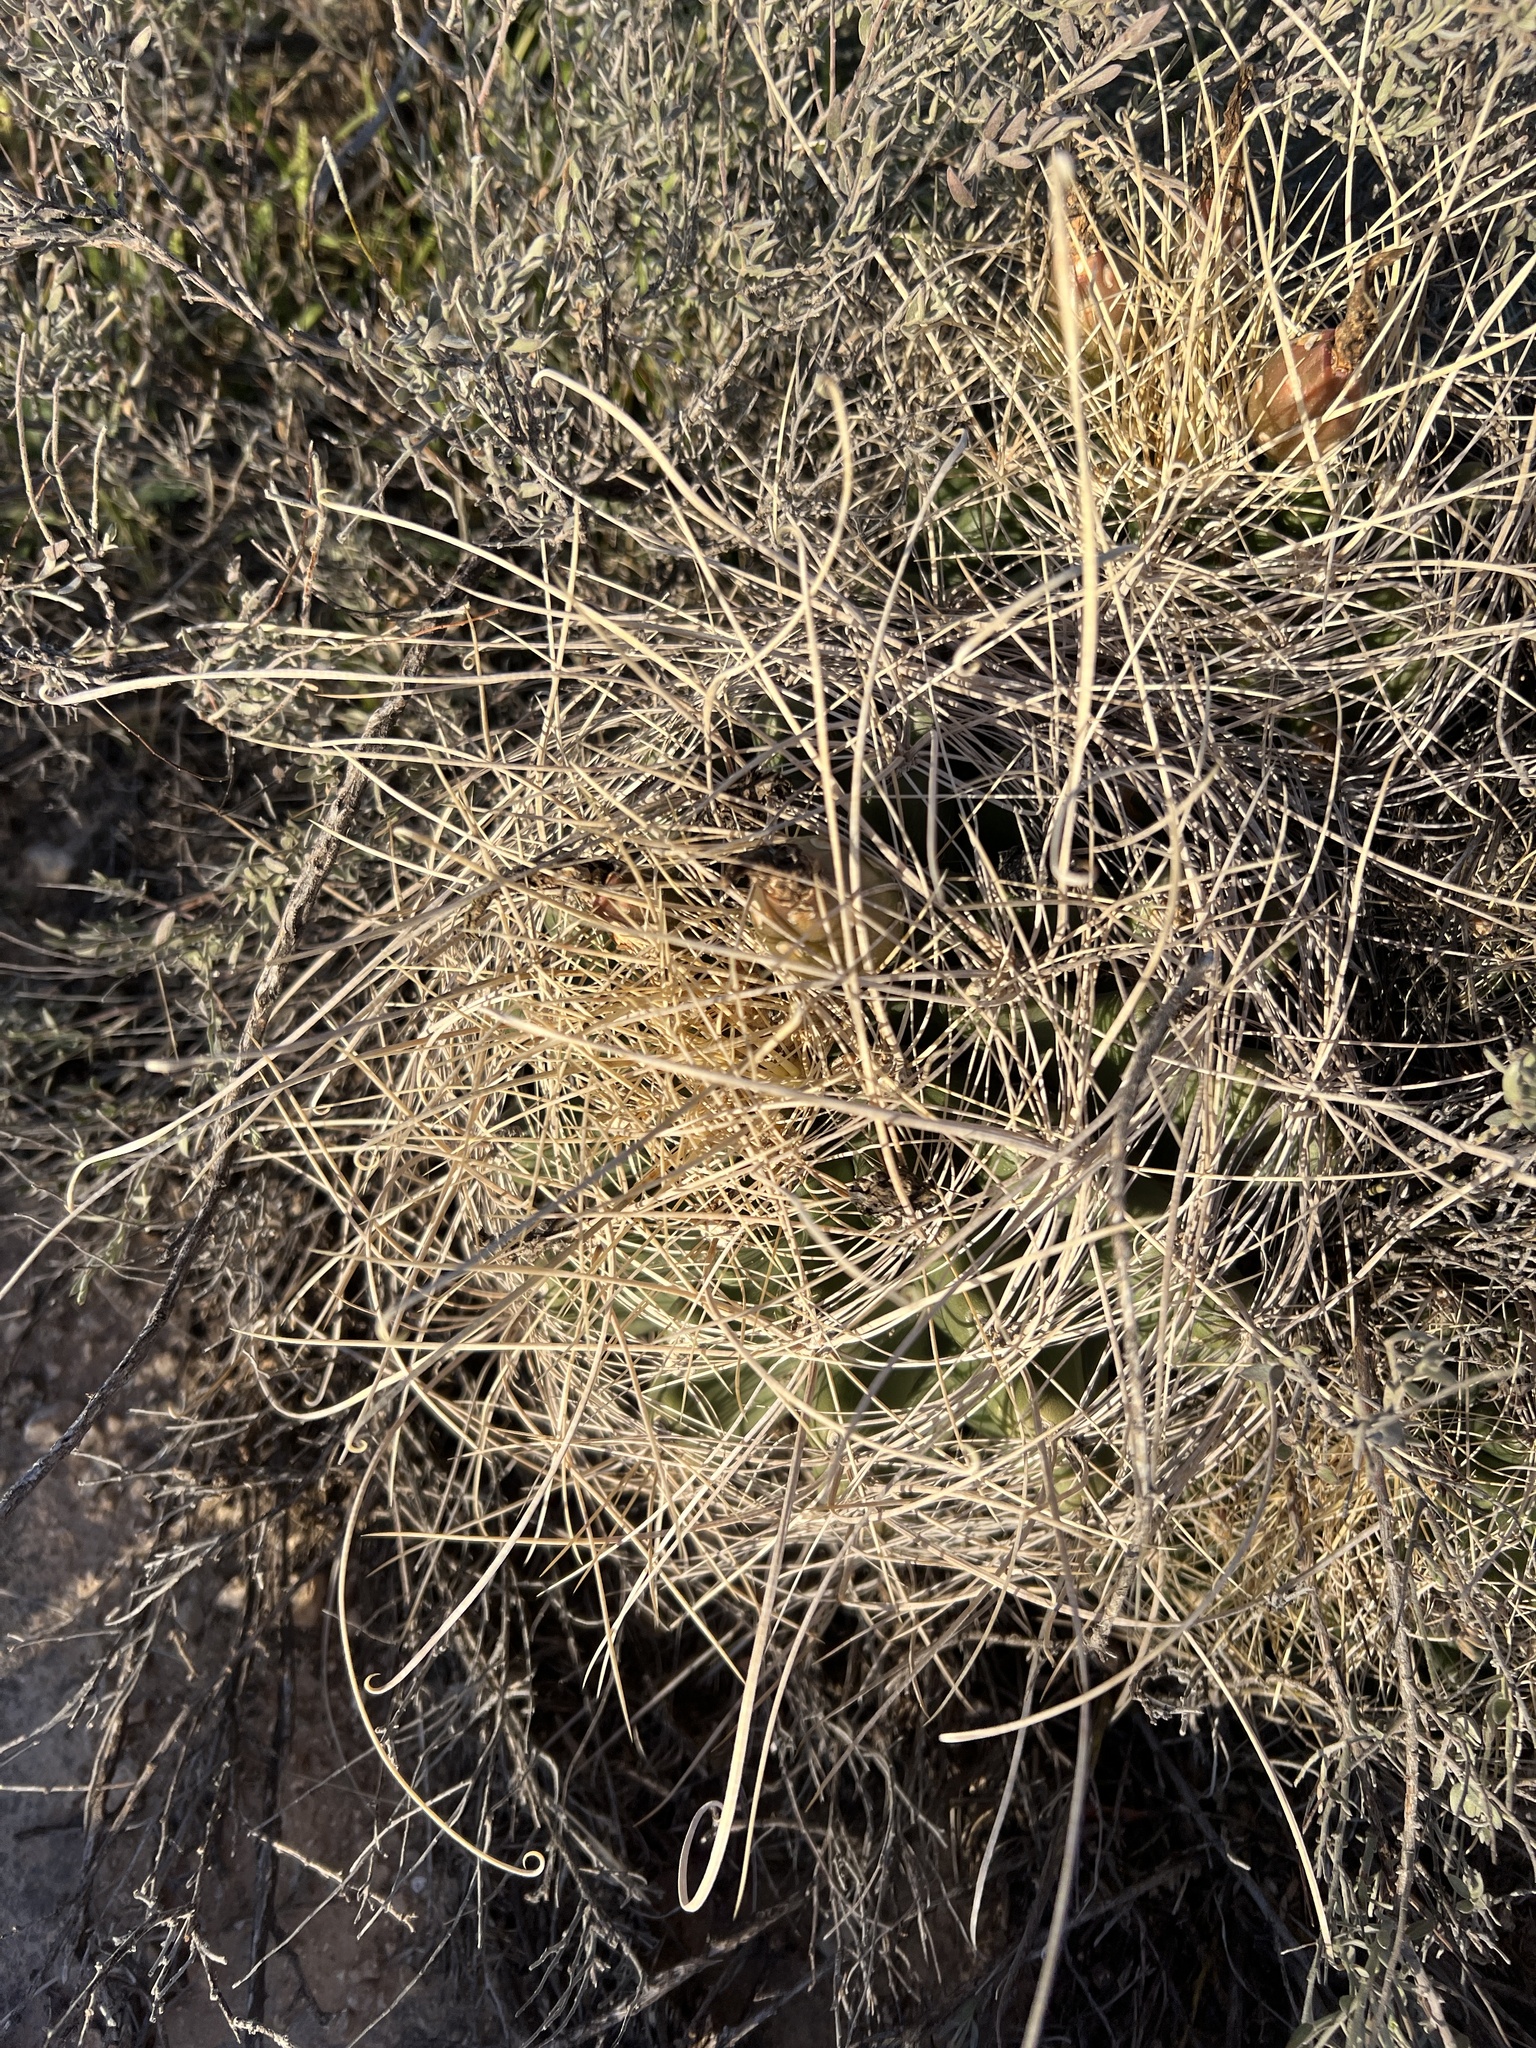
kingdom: Plantae
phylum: Tracheophyta
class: Magnoliopsida
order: Caryophyllales
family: Cactaceae
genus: Bisnaga
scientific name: Bisnaga hamatacantha
